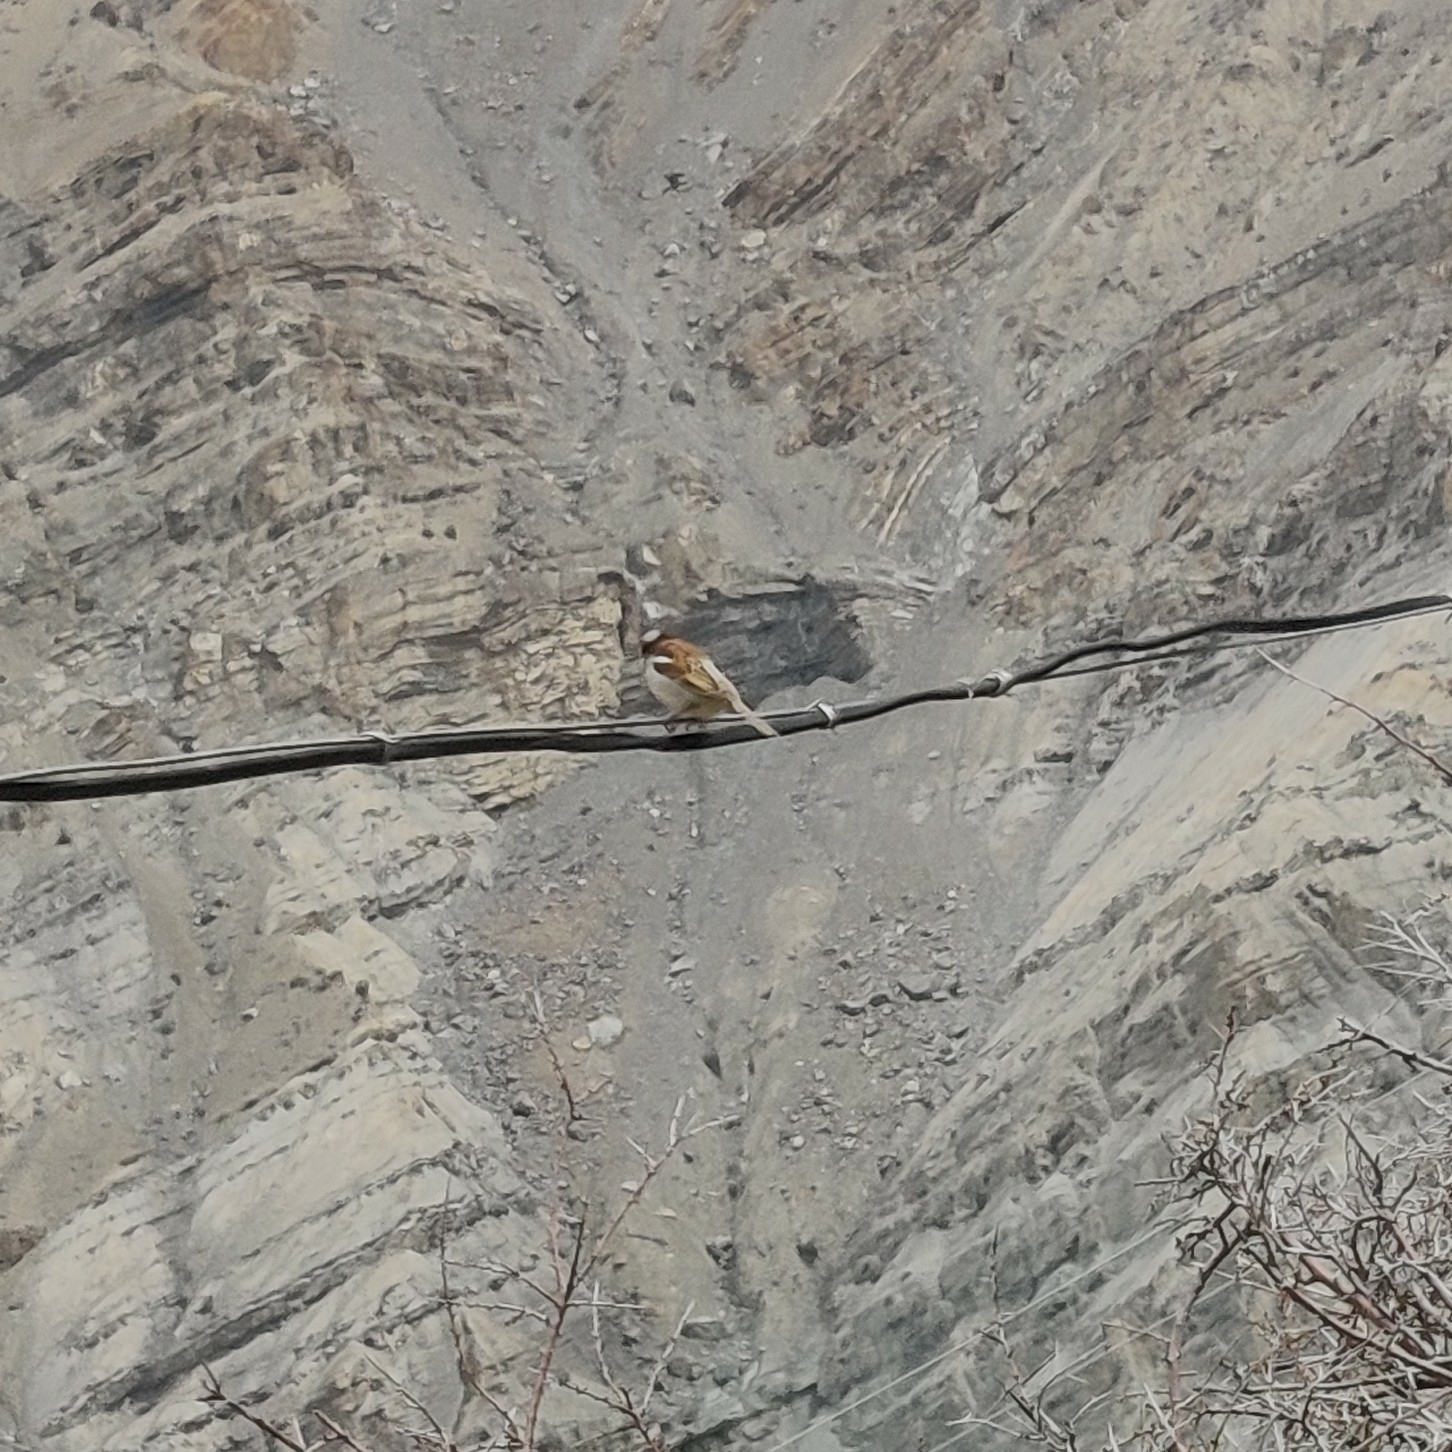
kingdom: Animalia
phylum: Chordata
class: Aves
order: Passeriformes
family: Passeridae
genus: Passer
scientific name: Passer domesticus
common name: House sparrow
